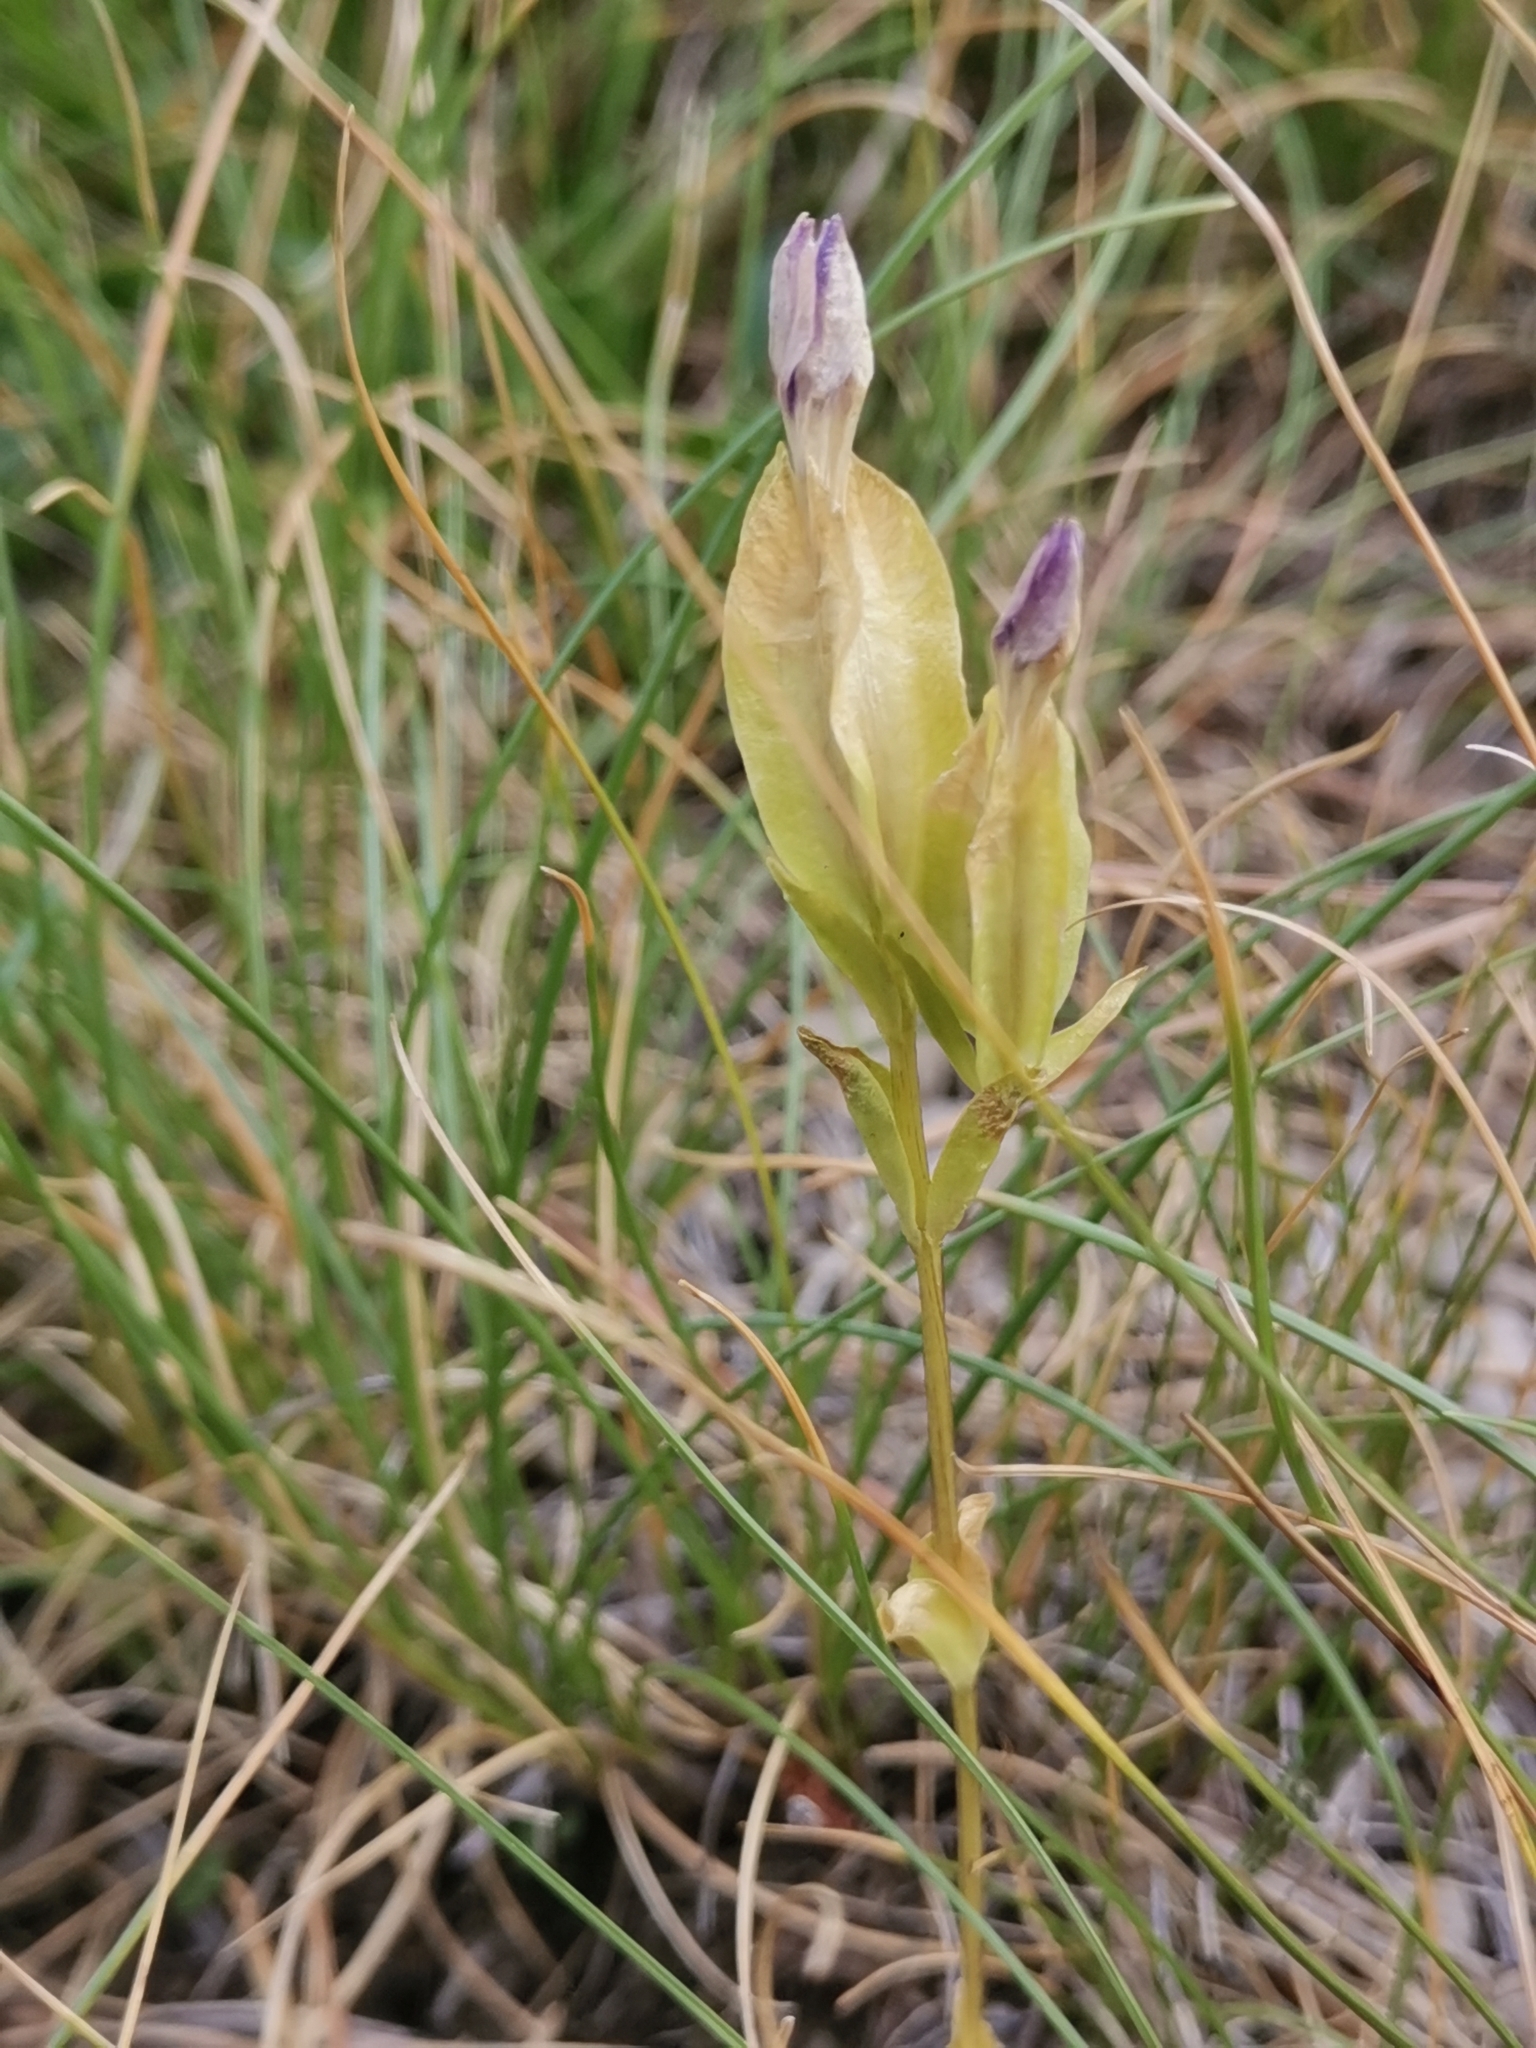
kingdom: Plantae
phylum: Tracheophyta
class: Magnoliopsida
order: Gentianales
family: Gentianaceae
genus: Gentiana
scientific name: Gentiana utriculosa
